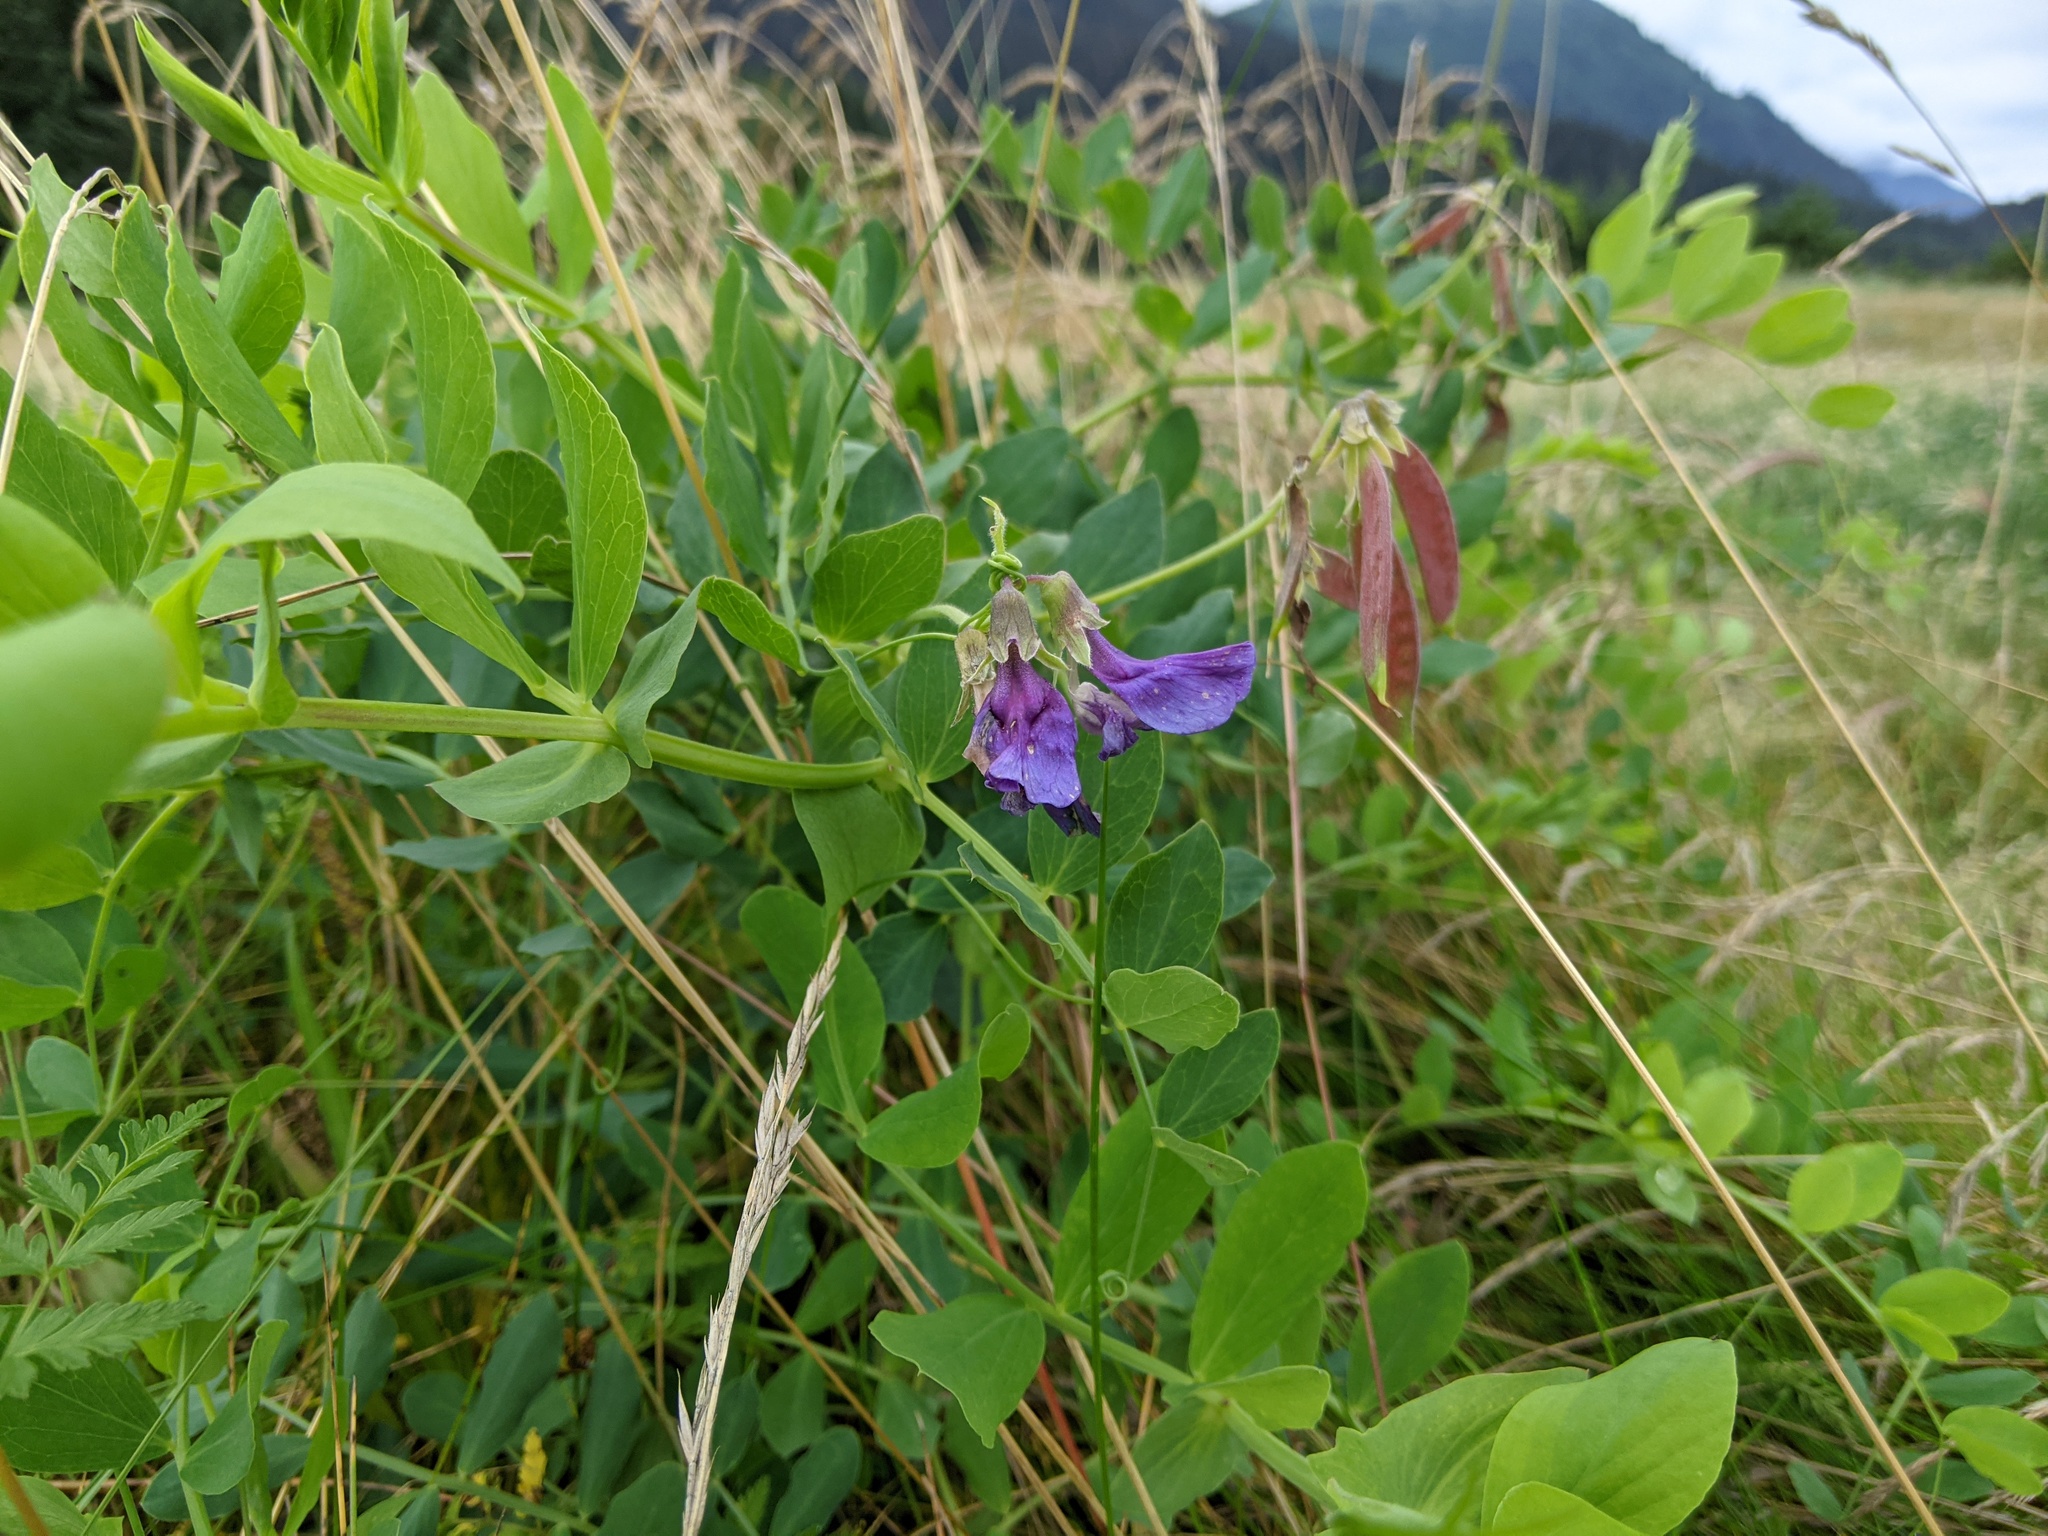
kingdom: Plantae
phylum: Tracheophyta
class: Magnoliopsida
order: Fabales
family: Fabaceae
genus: Lathyrus
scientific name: Lathyrus japonicus
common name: Sea pea
